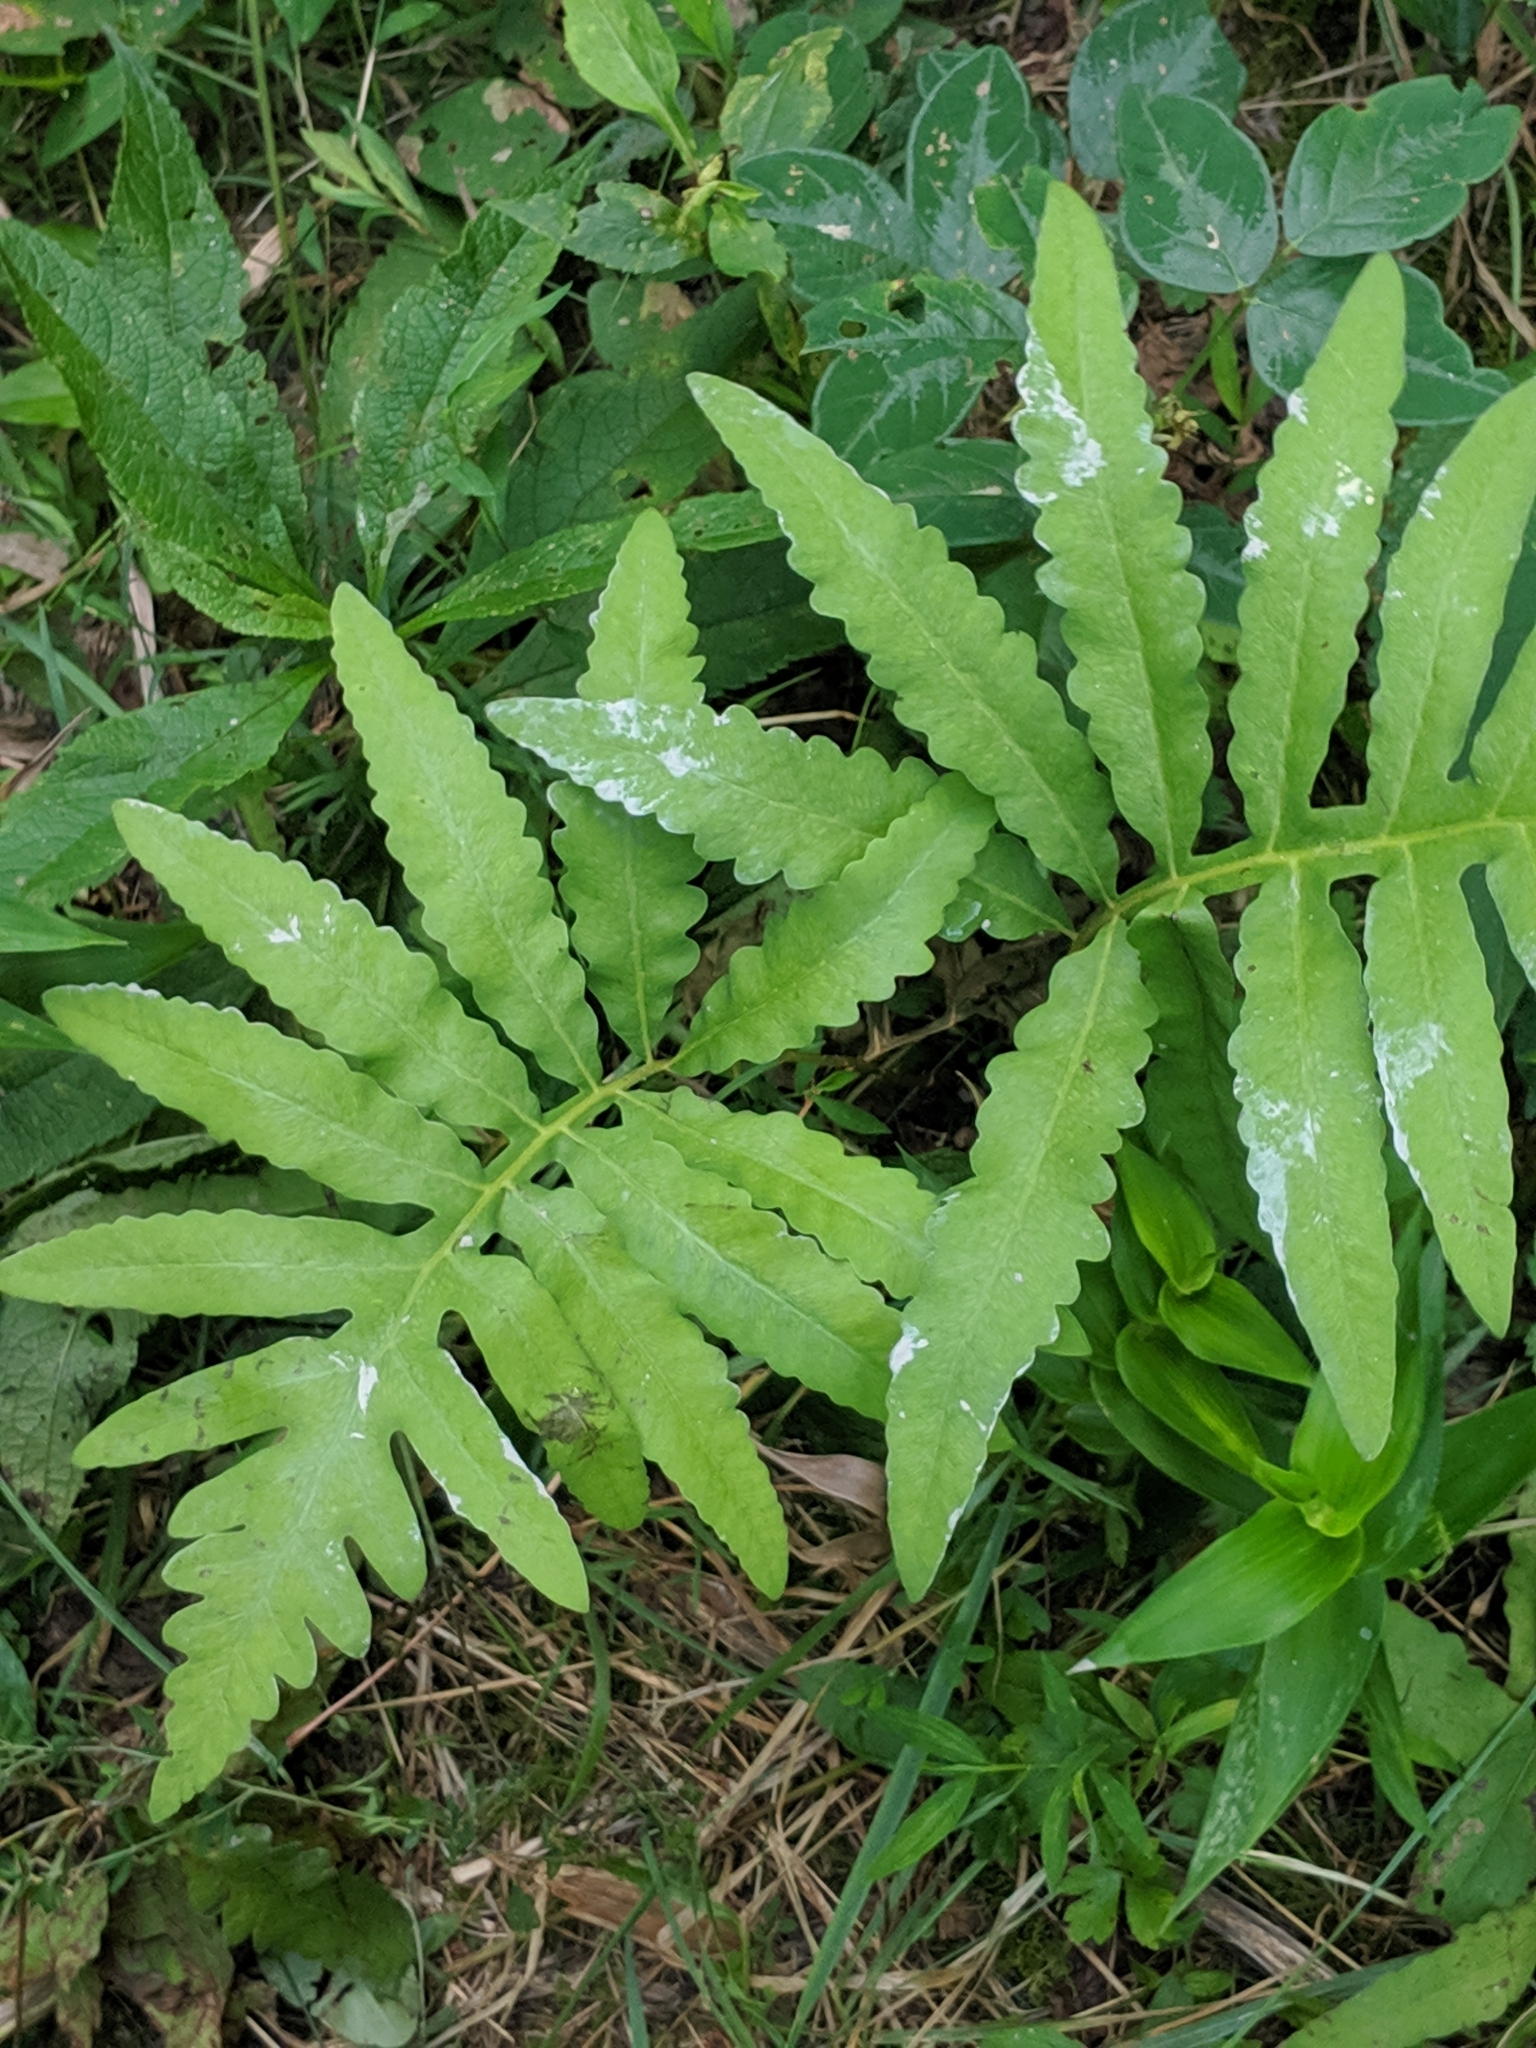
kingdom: Plantae
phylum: Tracheophyta
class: Polypodiopsida
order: Polypodiales
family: Onocleaceae
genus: Onoclea
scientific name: Onoclea sensibilis
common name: Sensitive fern
